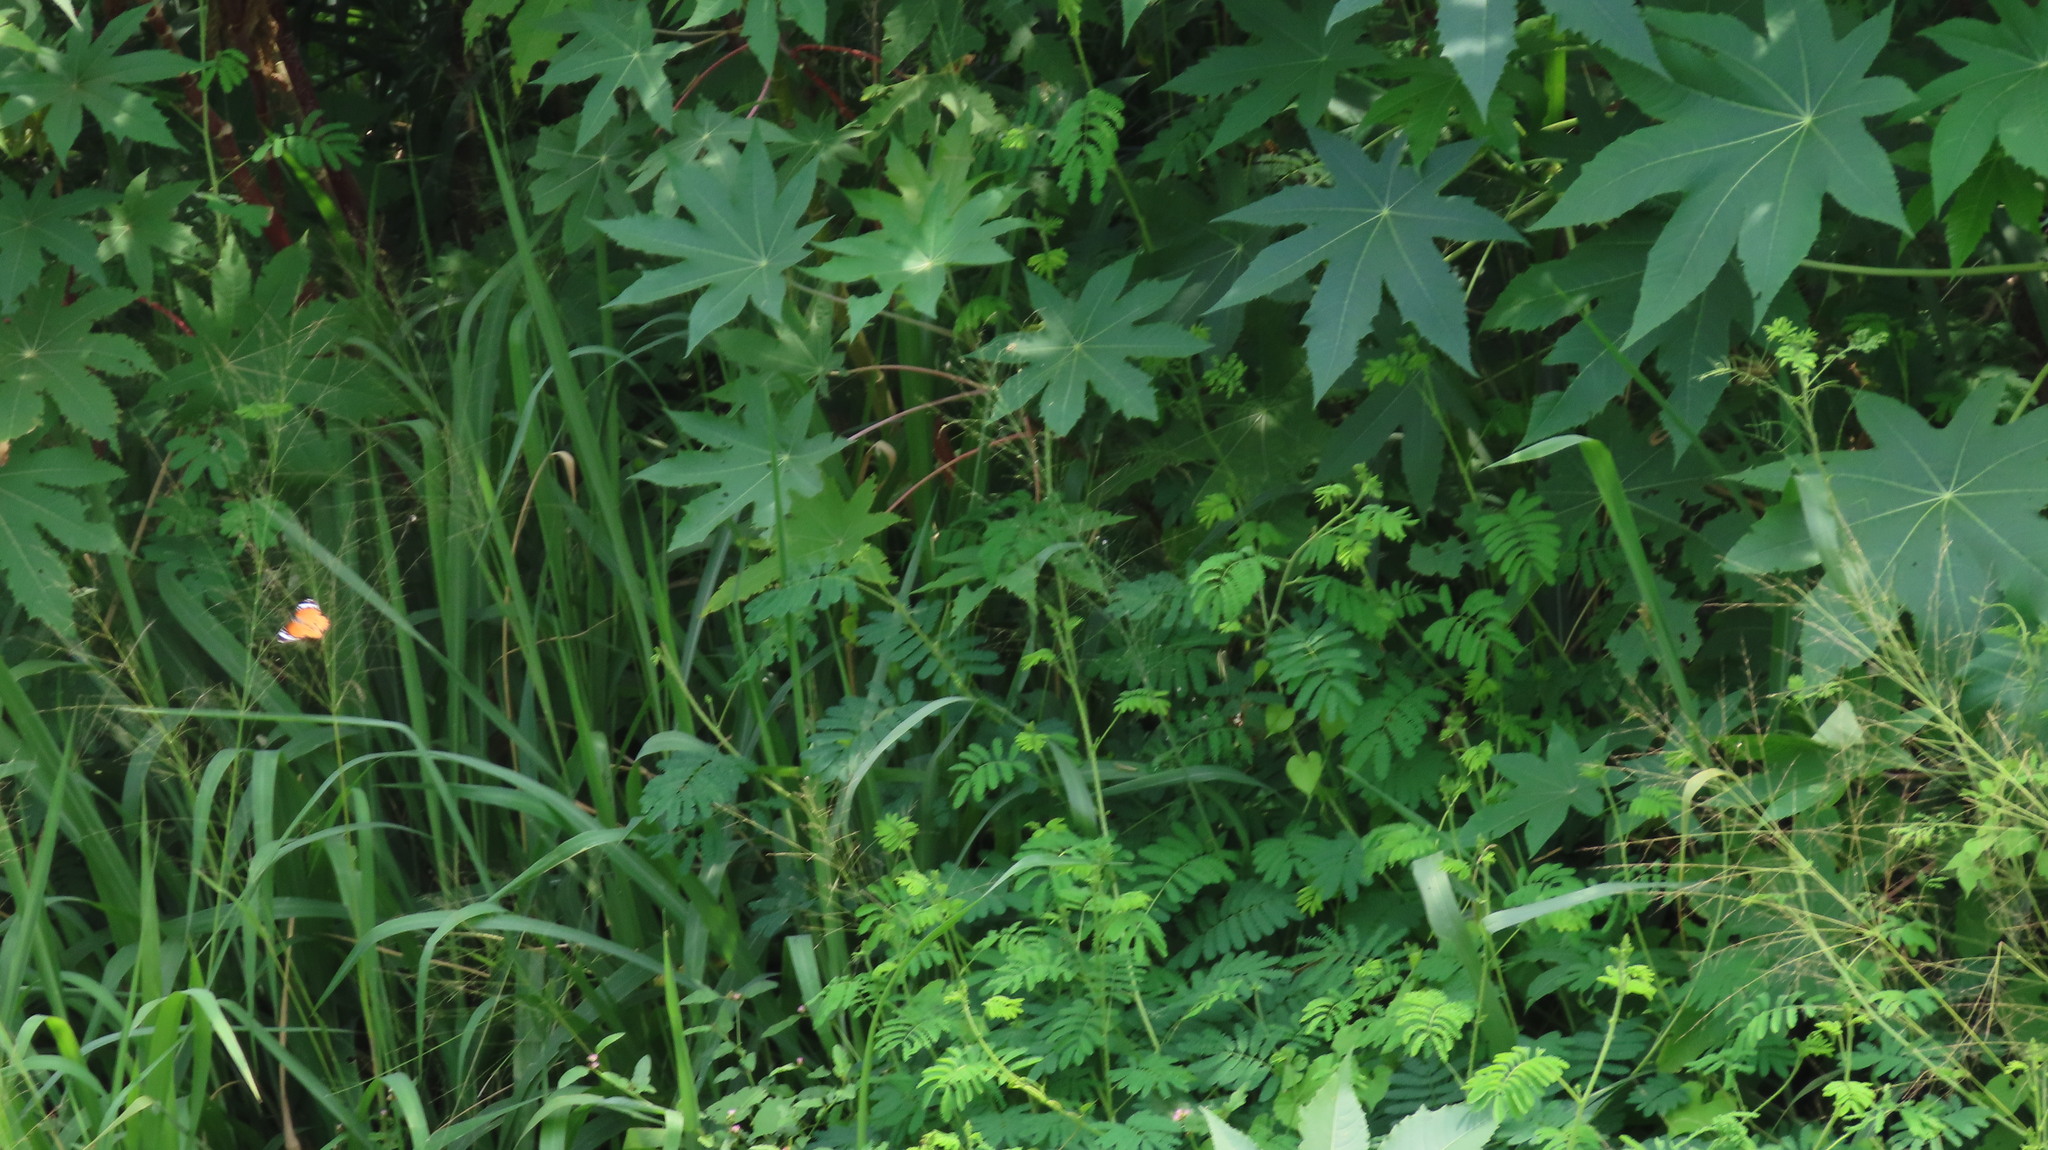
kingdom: Animalia
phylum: Arthropoda
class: Insecta
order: Lepidoptera
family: Nymphalidae
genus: Danaus
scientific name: Danaus chrysippus
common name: Plain tiger
